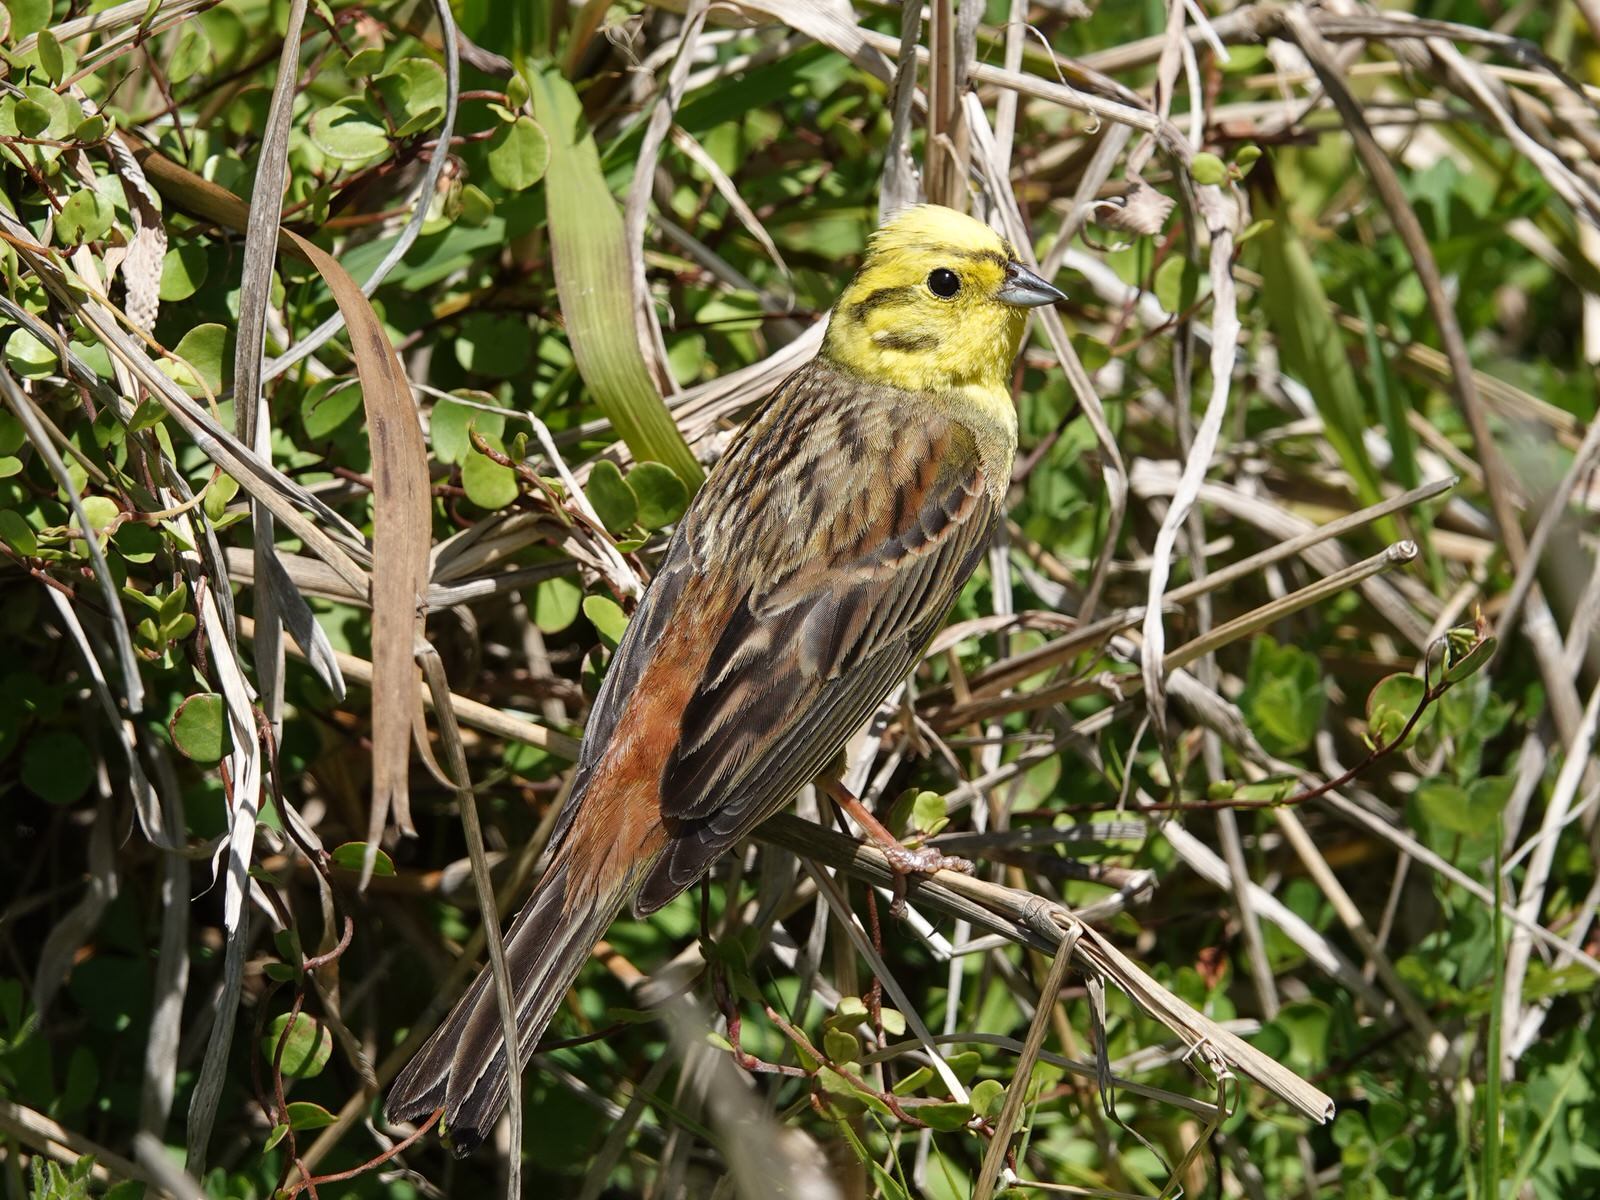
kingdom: Animalia
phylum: Chordata
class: Aves
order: Passeriformes
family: Emberizidae
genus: Emberiza
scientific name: Emberiza citrinella
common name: Yellowhammer
